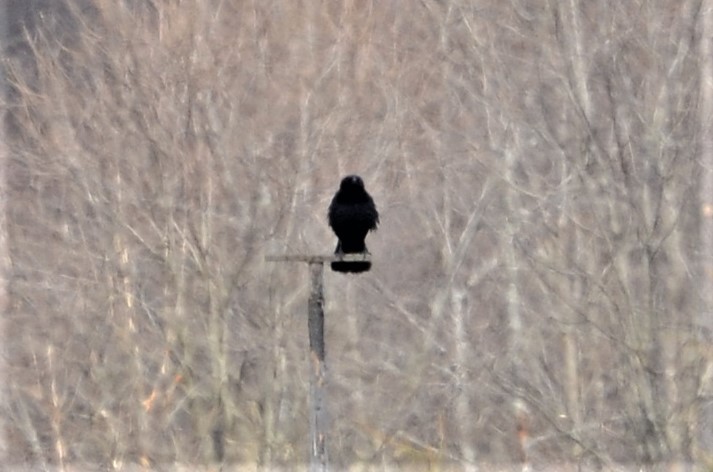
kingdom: Animalia
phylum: Chordata
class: Aves
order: Passeriformes
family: Corvidae
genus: Corvus
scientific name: Corvus corone
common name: Carrion crow
